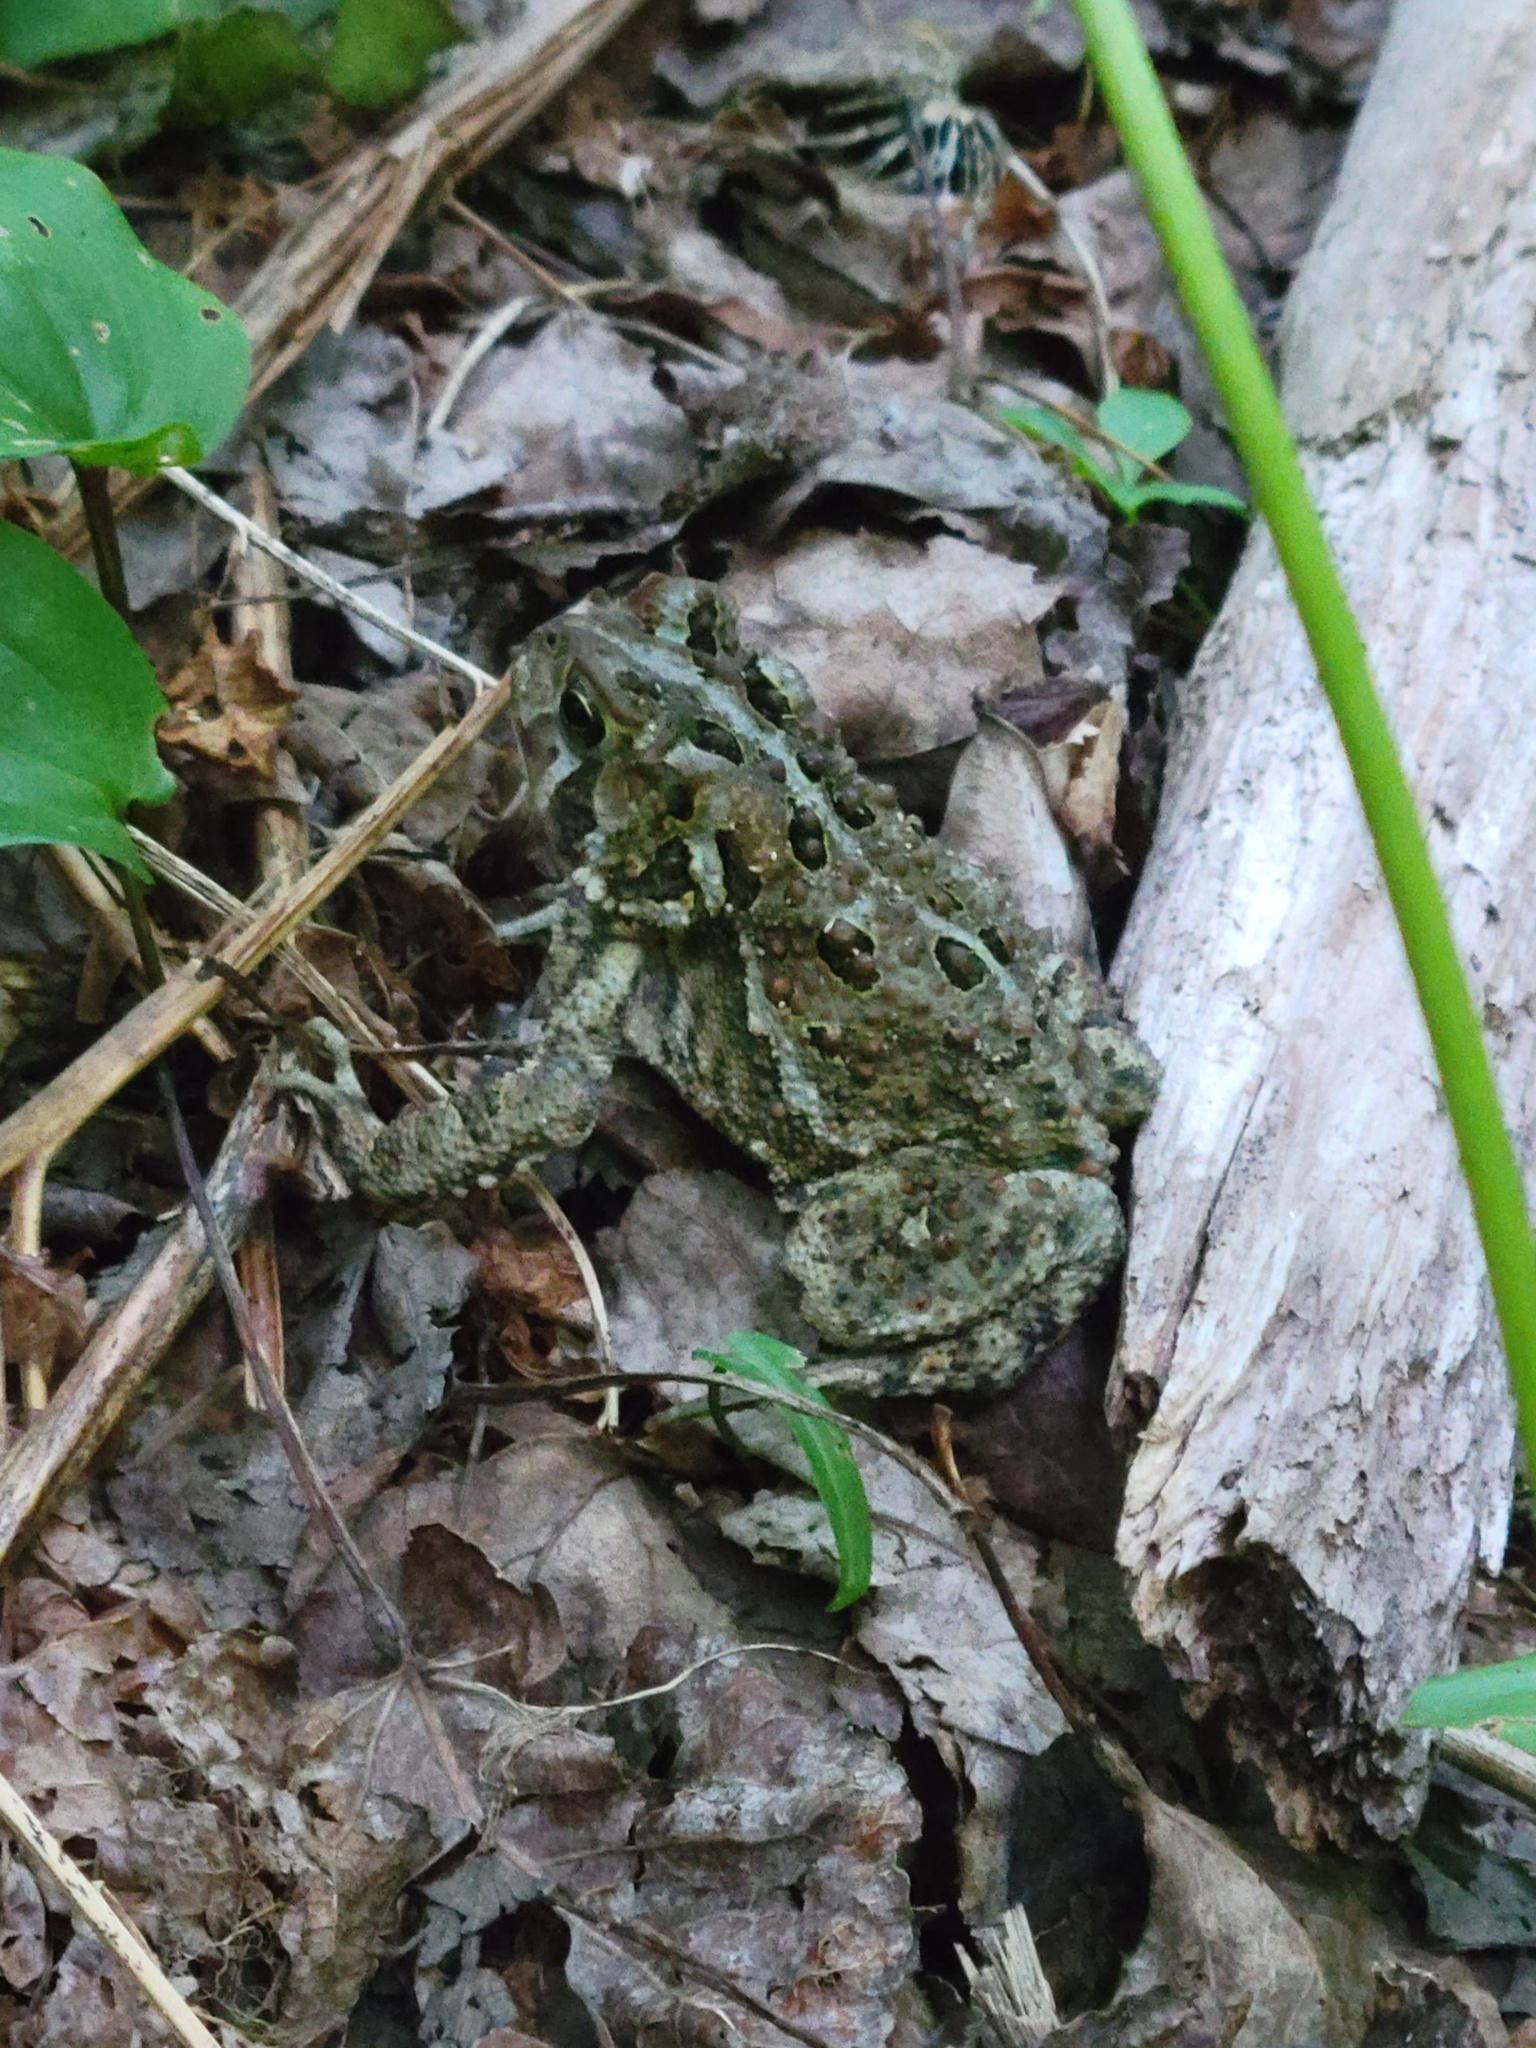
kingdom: Animalia
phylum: Chordata
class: Amphibia
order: Anura
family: Bufonidae
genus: Anaxyrus
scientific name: Anaxyrus americanus
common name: American toad
